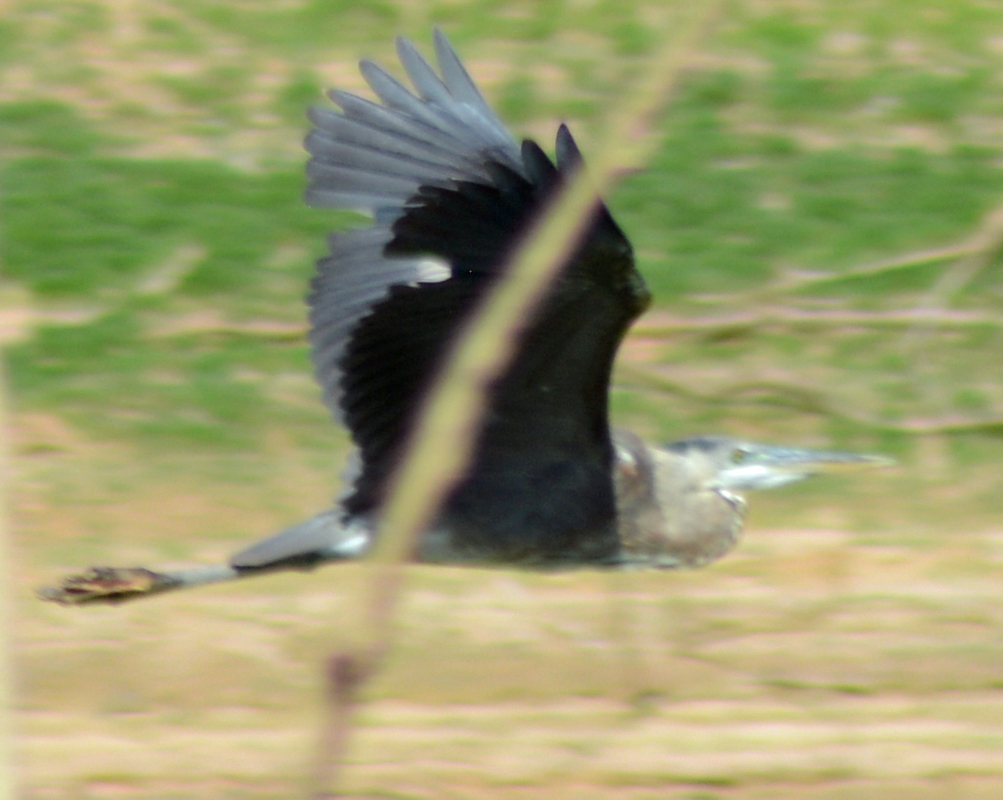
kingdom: Animalia
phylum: Chordata
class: Aves
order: Pelecaniformes
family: Ardeidae
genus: Ardea
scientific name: Ardea herodias
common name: Great blue heron
